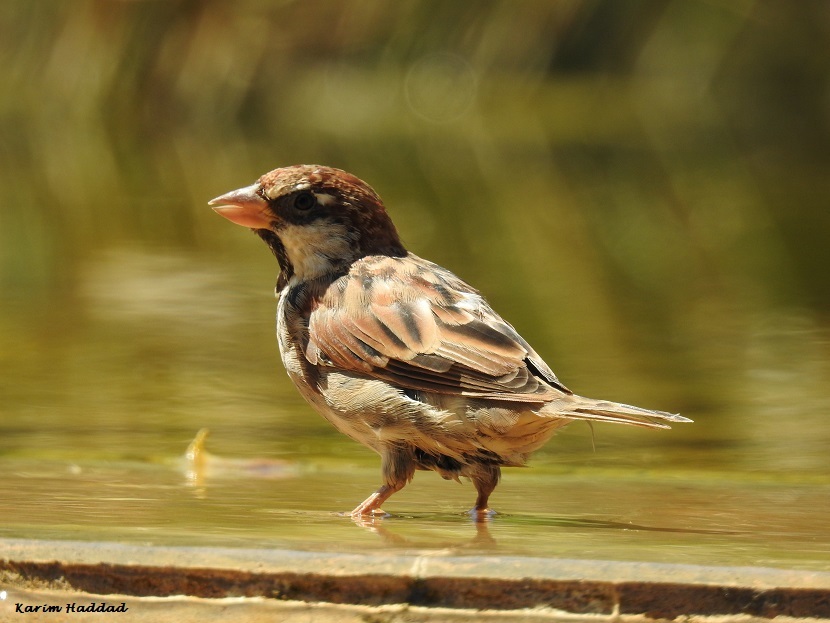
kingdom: Animalia
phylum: Chordata
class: Aves
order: Passeriformes
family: Passeridae
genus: Passer
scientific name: Passer hispaniolensis
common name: Spanish sparrow
